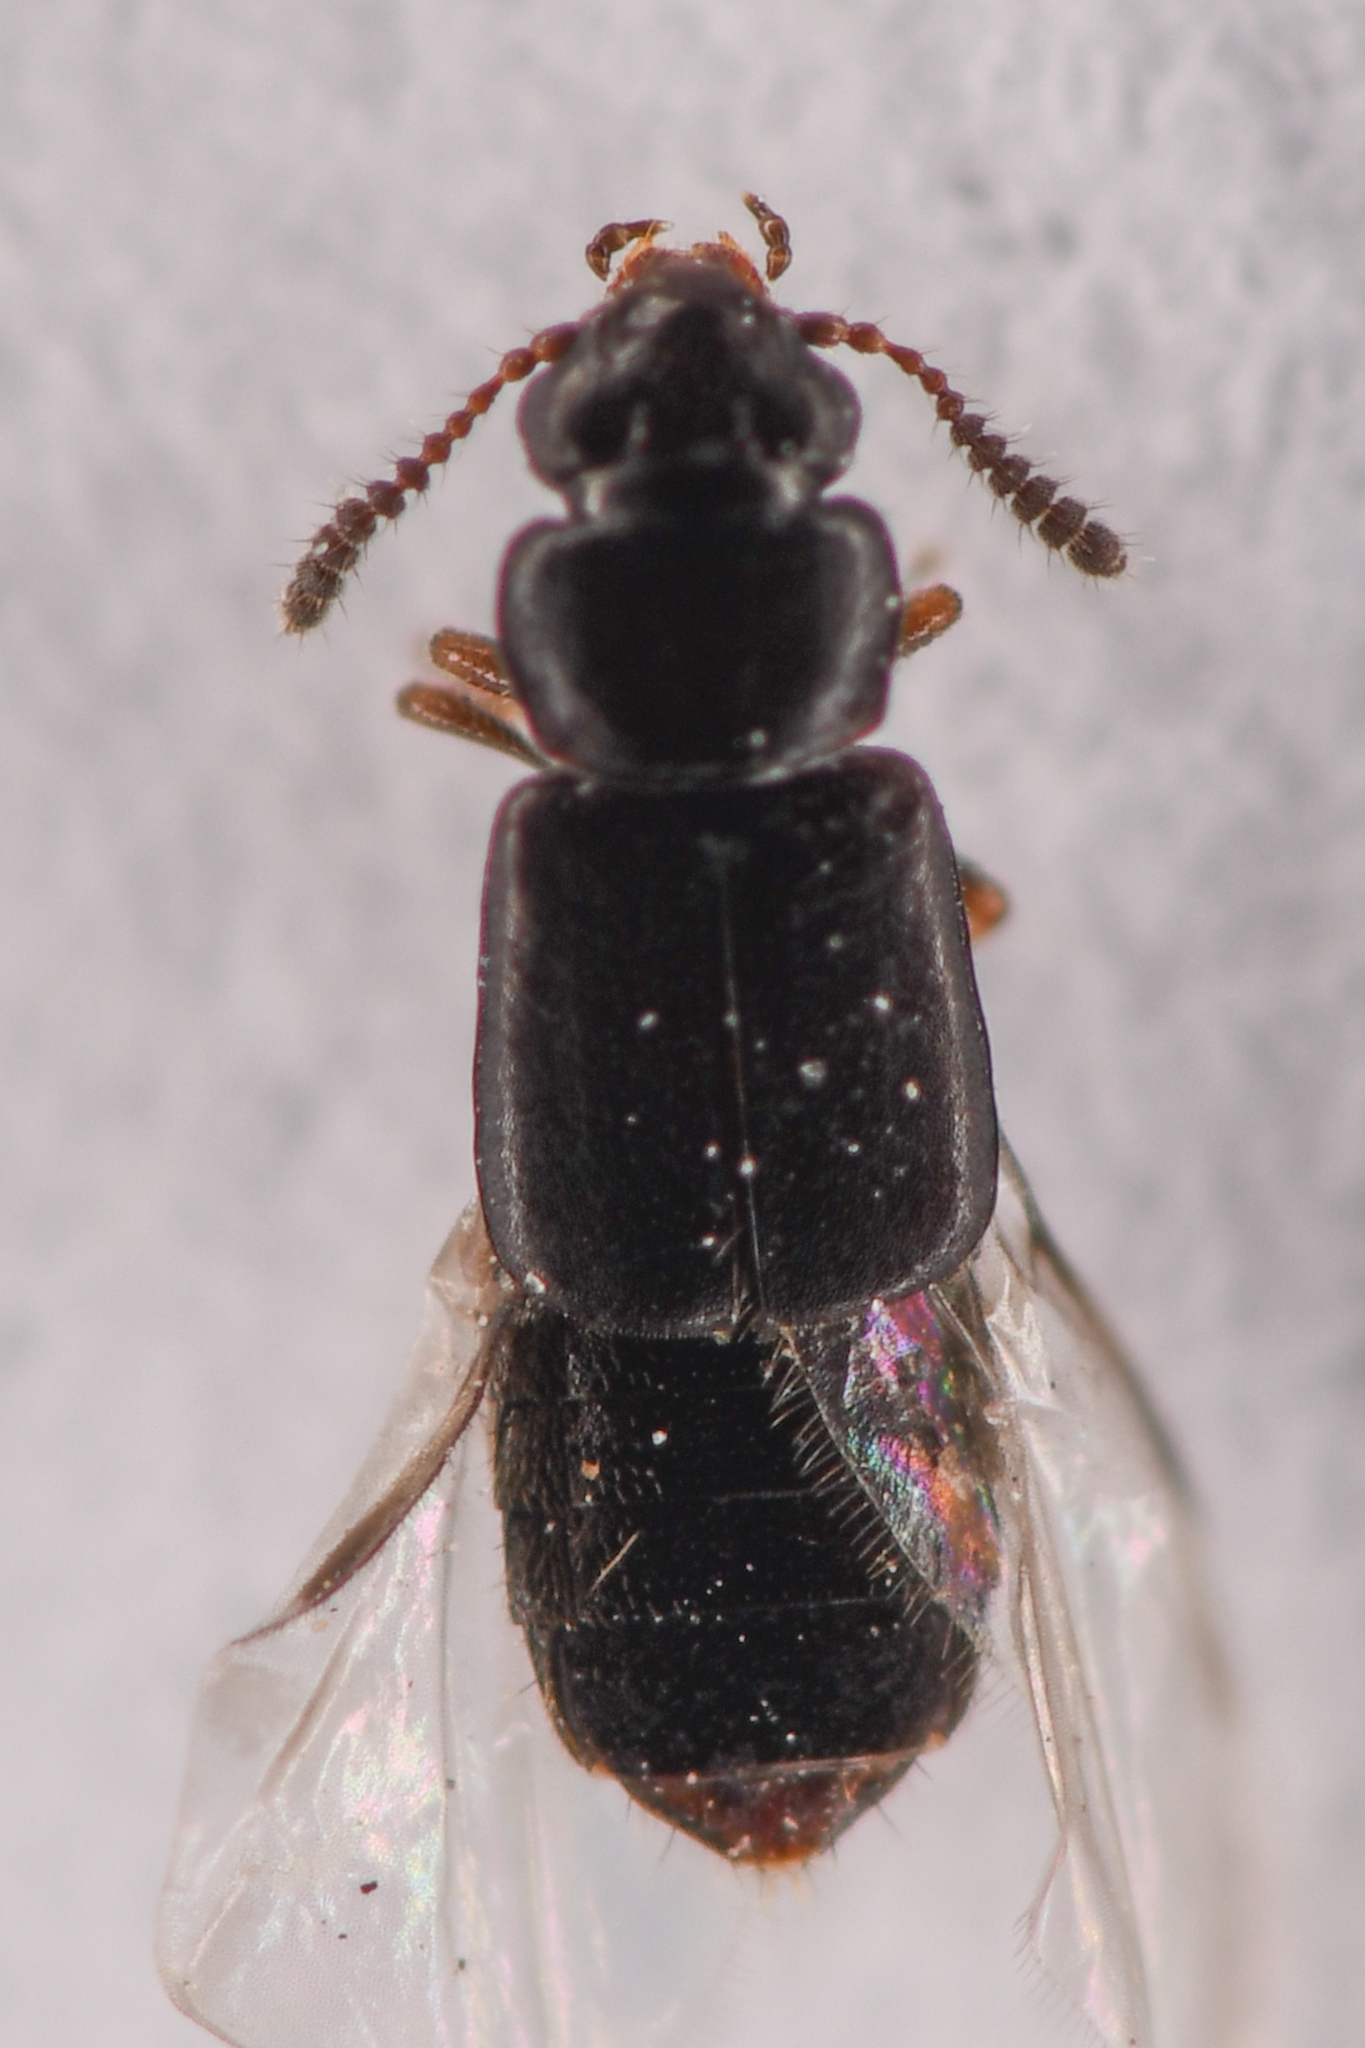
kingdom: Animalia
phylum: Arthropoda
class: Insecta
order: Coleoptera
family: Staphylinidae
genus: Phloeostiba
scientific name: Phloeostiba lapponica
